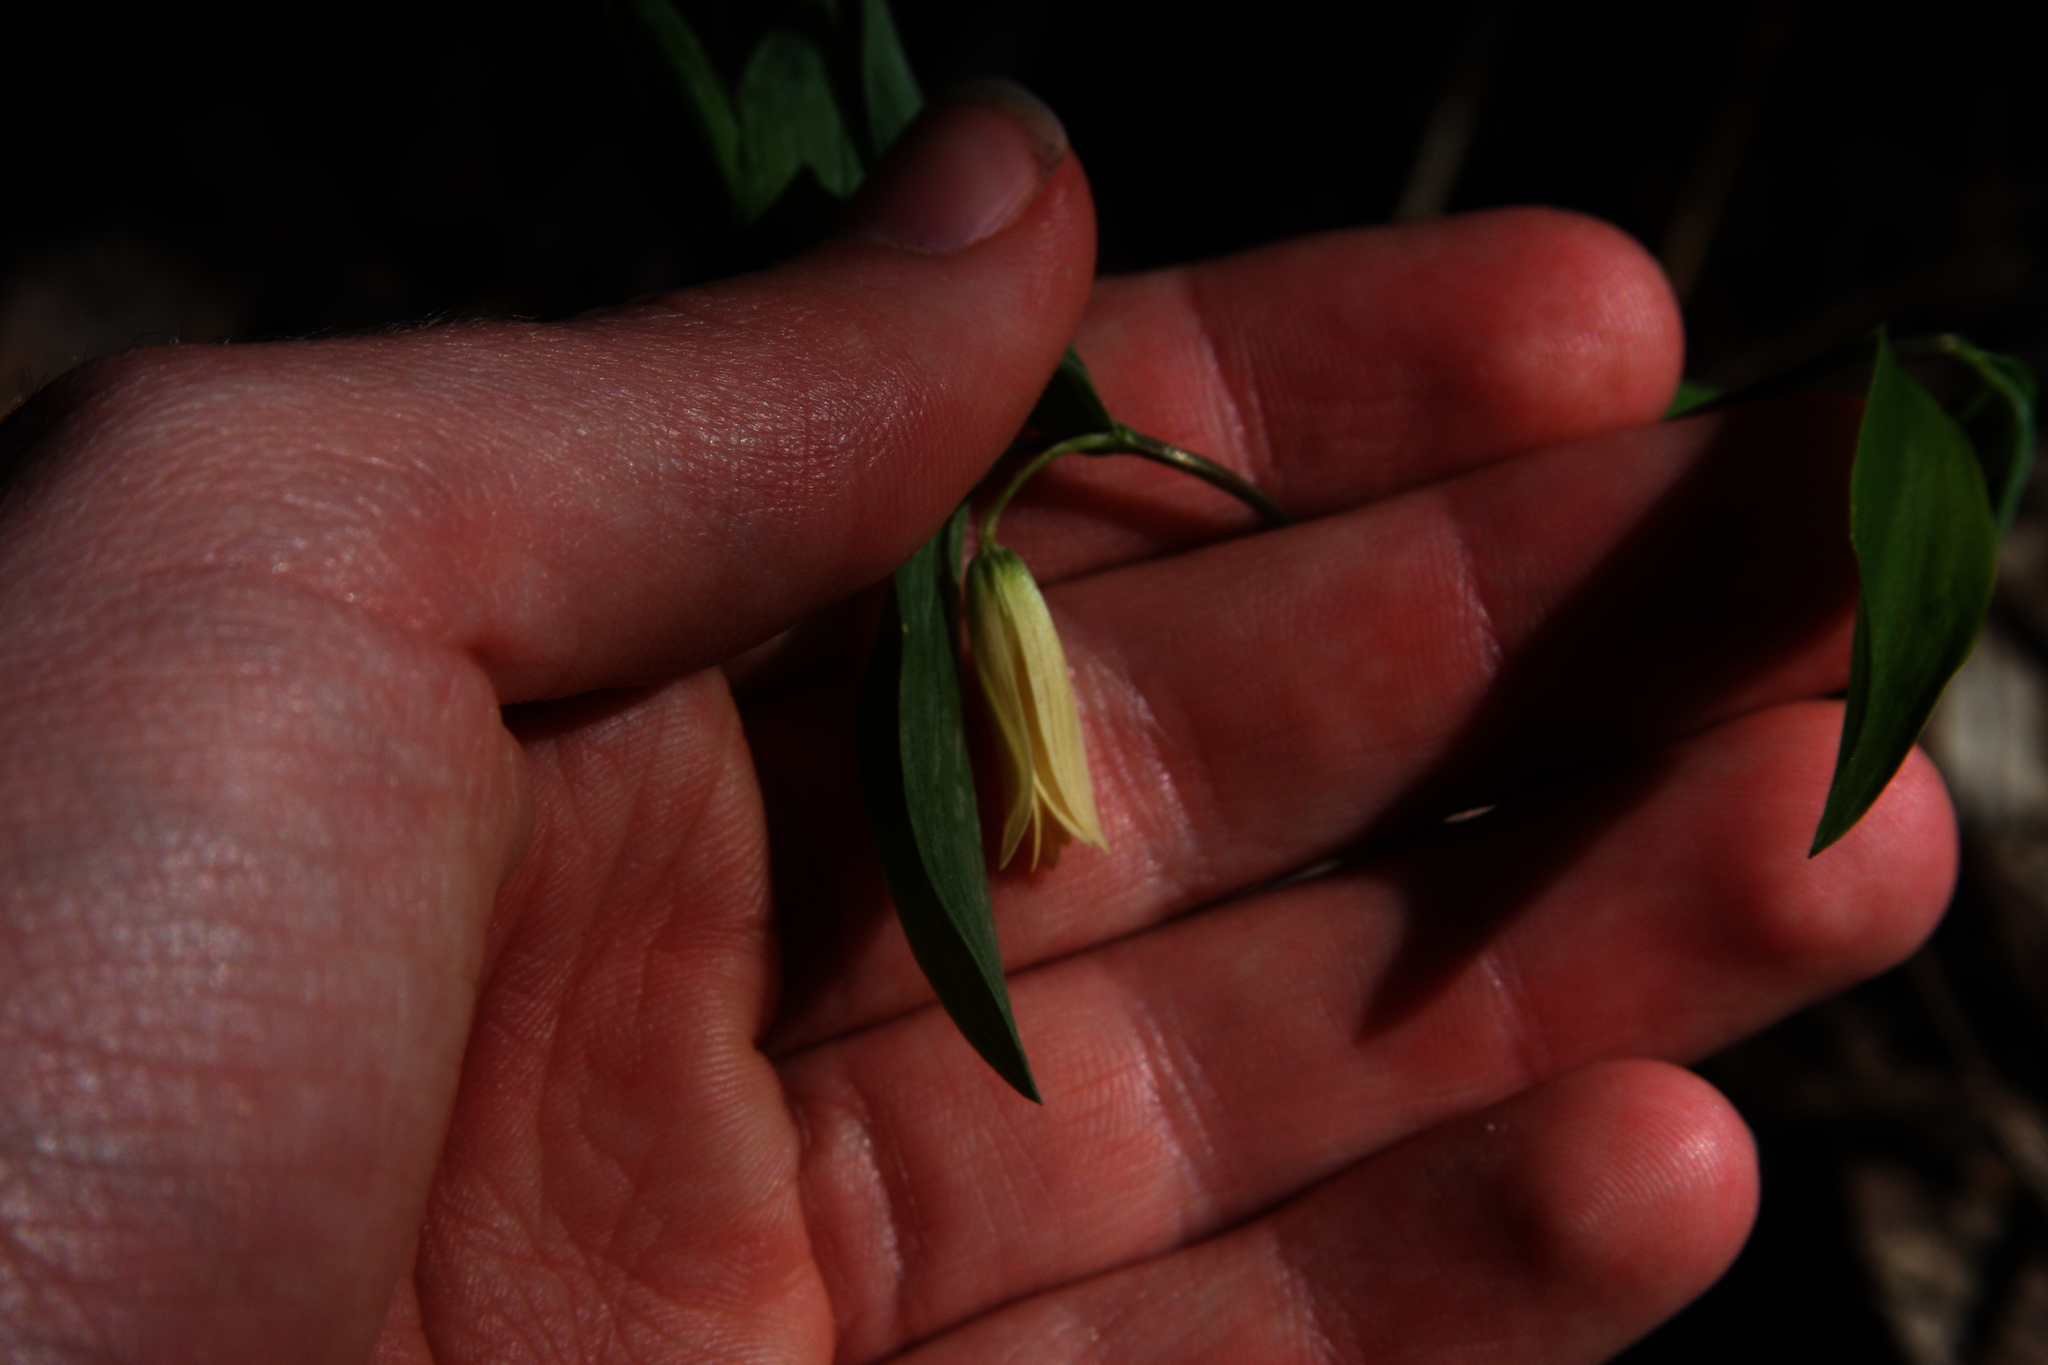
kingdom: Plantae
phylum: Tracheophyta
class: Liliopsida
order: Liliales
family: Colchicaceae
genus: Uvularia
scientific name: Uvularia sessilifolia
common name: Straw-lily
